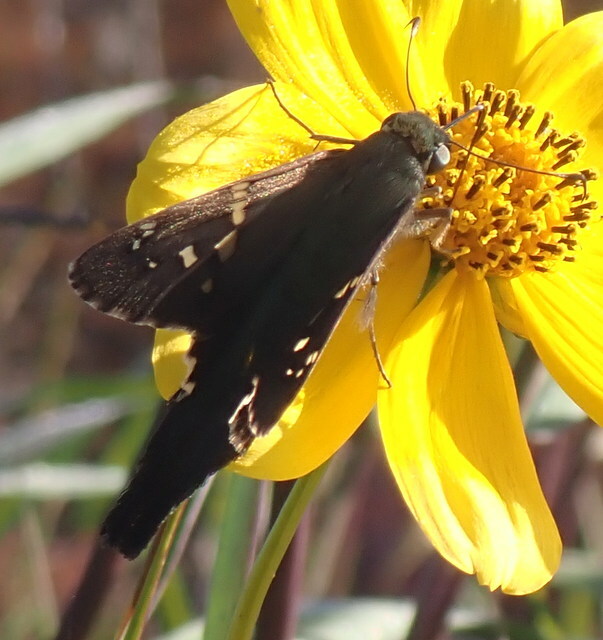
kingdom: Animalia
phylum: Arthropoda
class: Insecta
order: Lepidoptera
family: Hesperiidae
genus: Urbanus
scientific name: Urbanus proteus
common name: Long-tailed skipper
